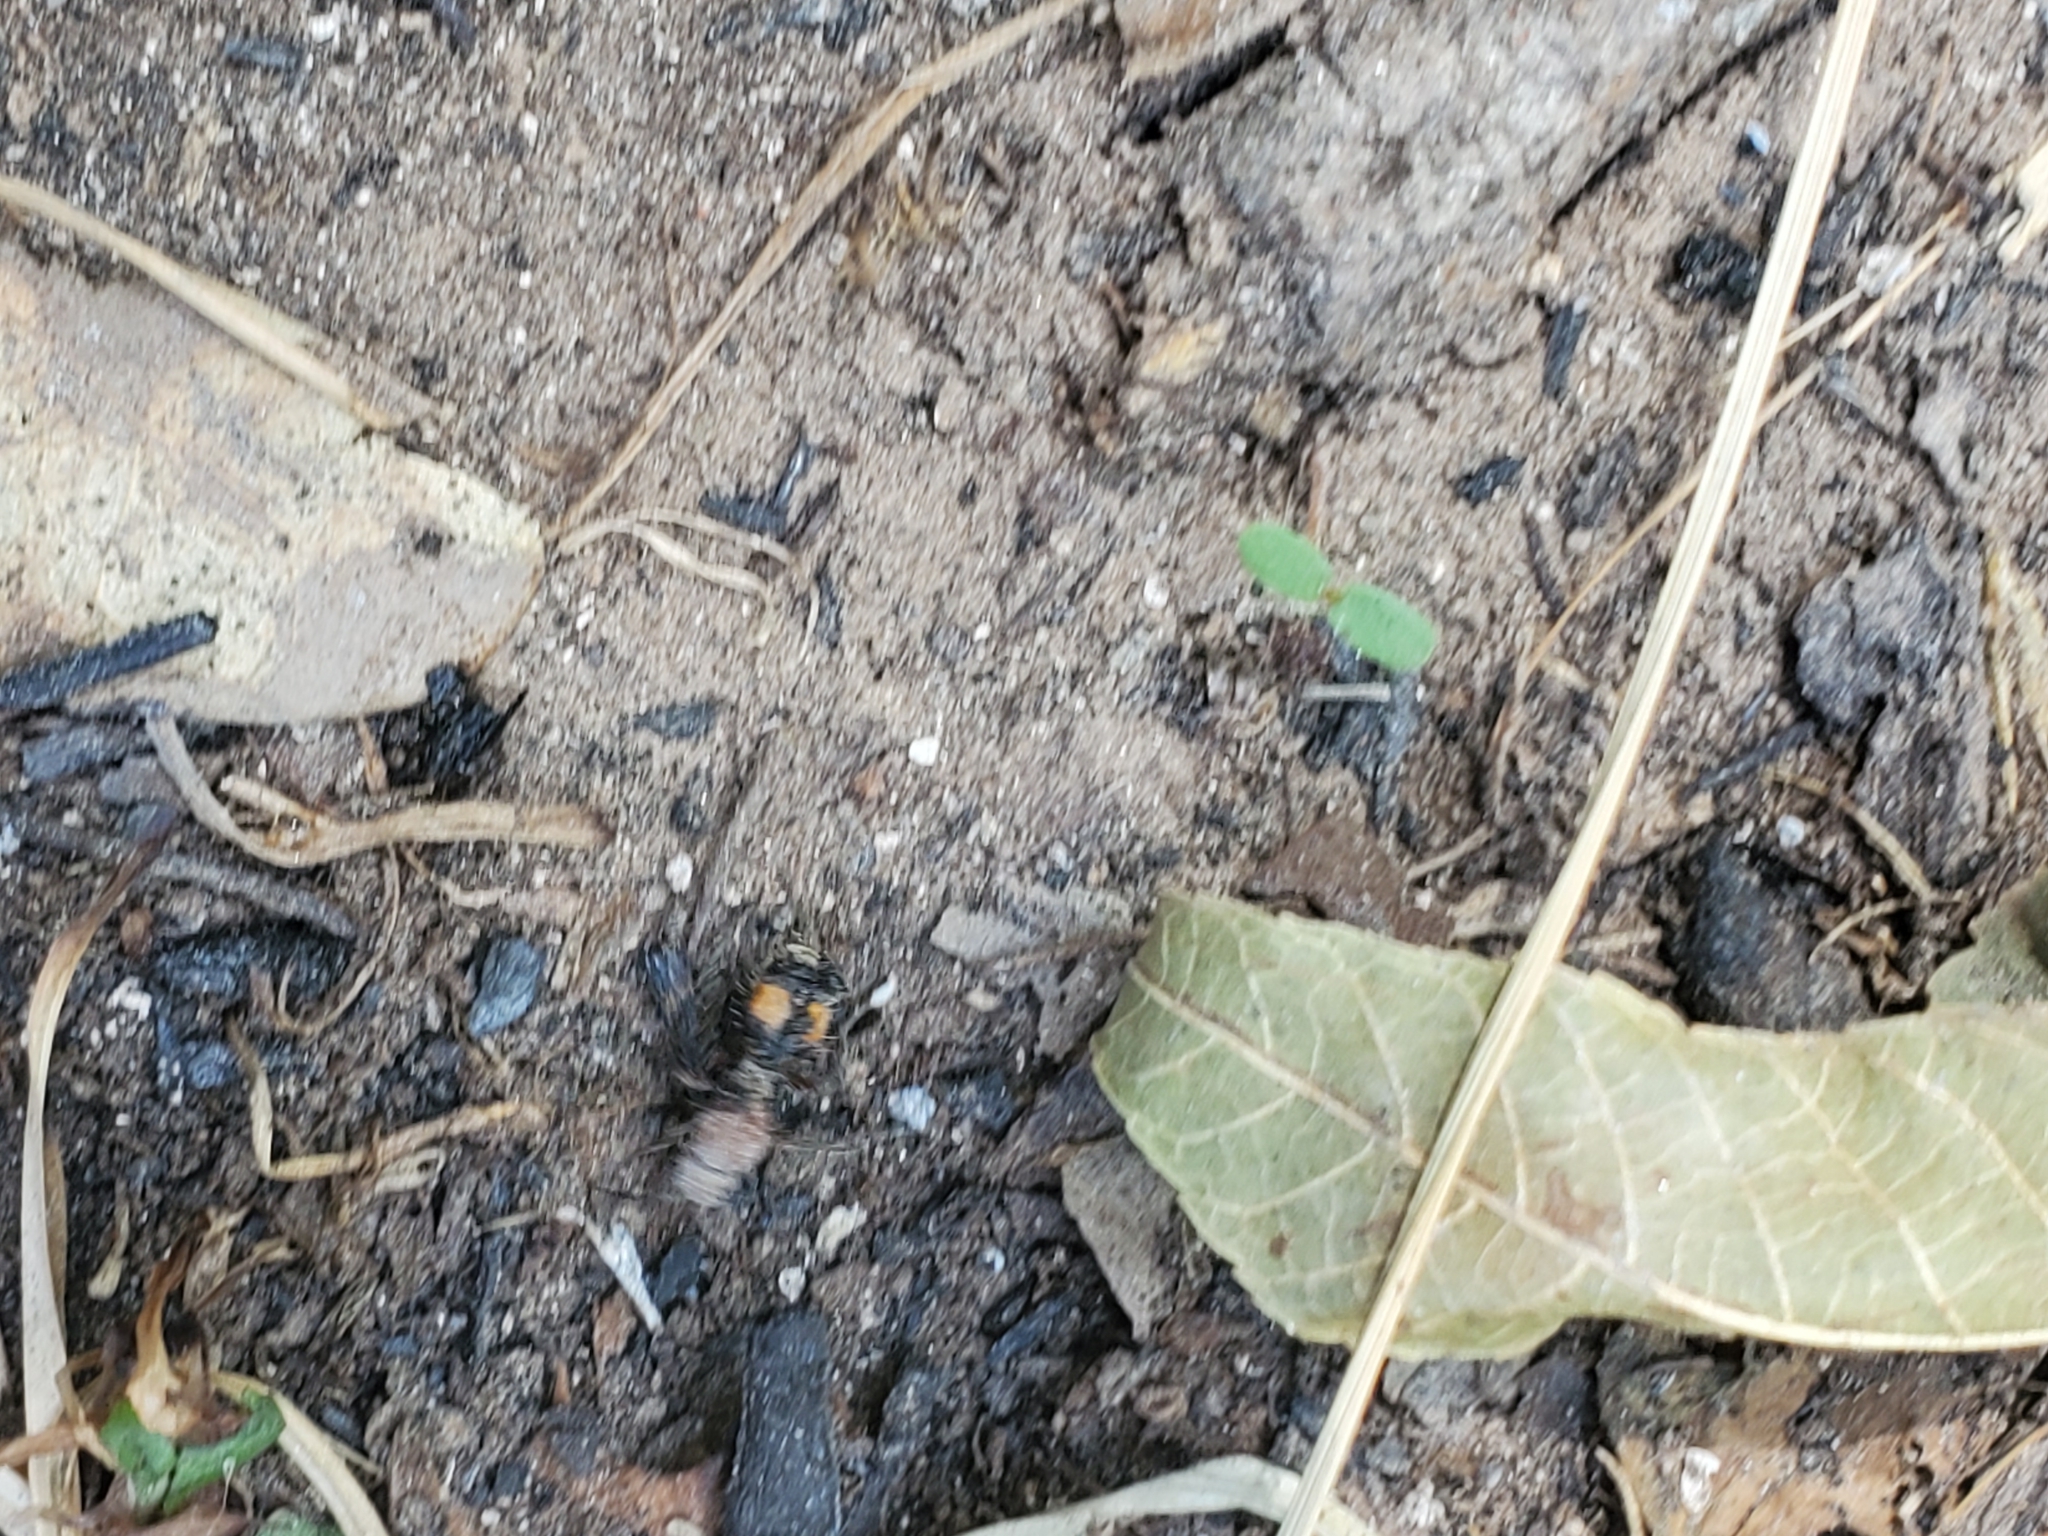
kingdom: Animalia
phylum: Arthropoda
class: Insecta
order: Hymenoptera
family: Mutillidae
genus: Dasymutilla
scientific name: Dasymutilla
